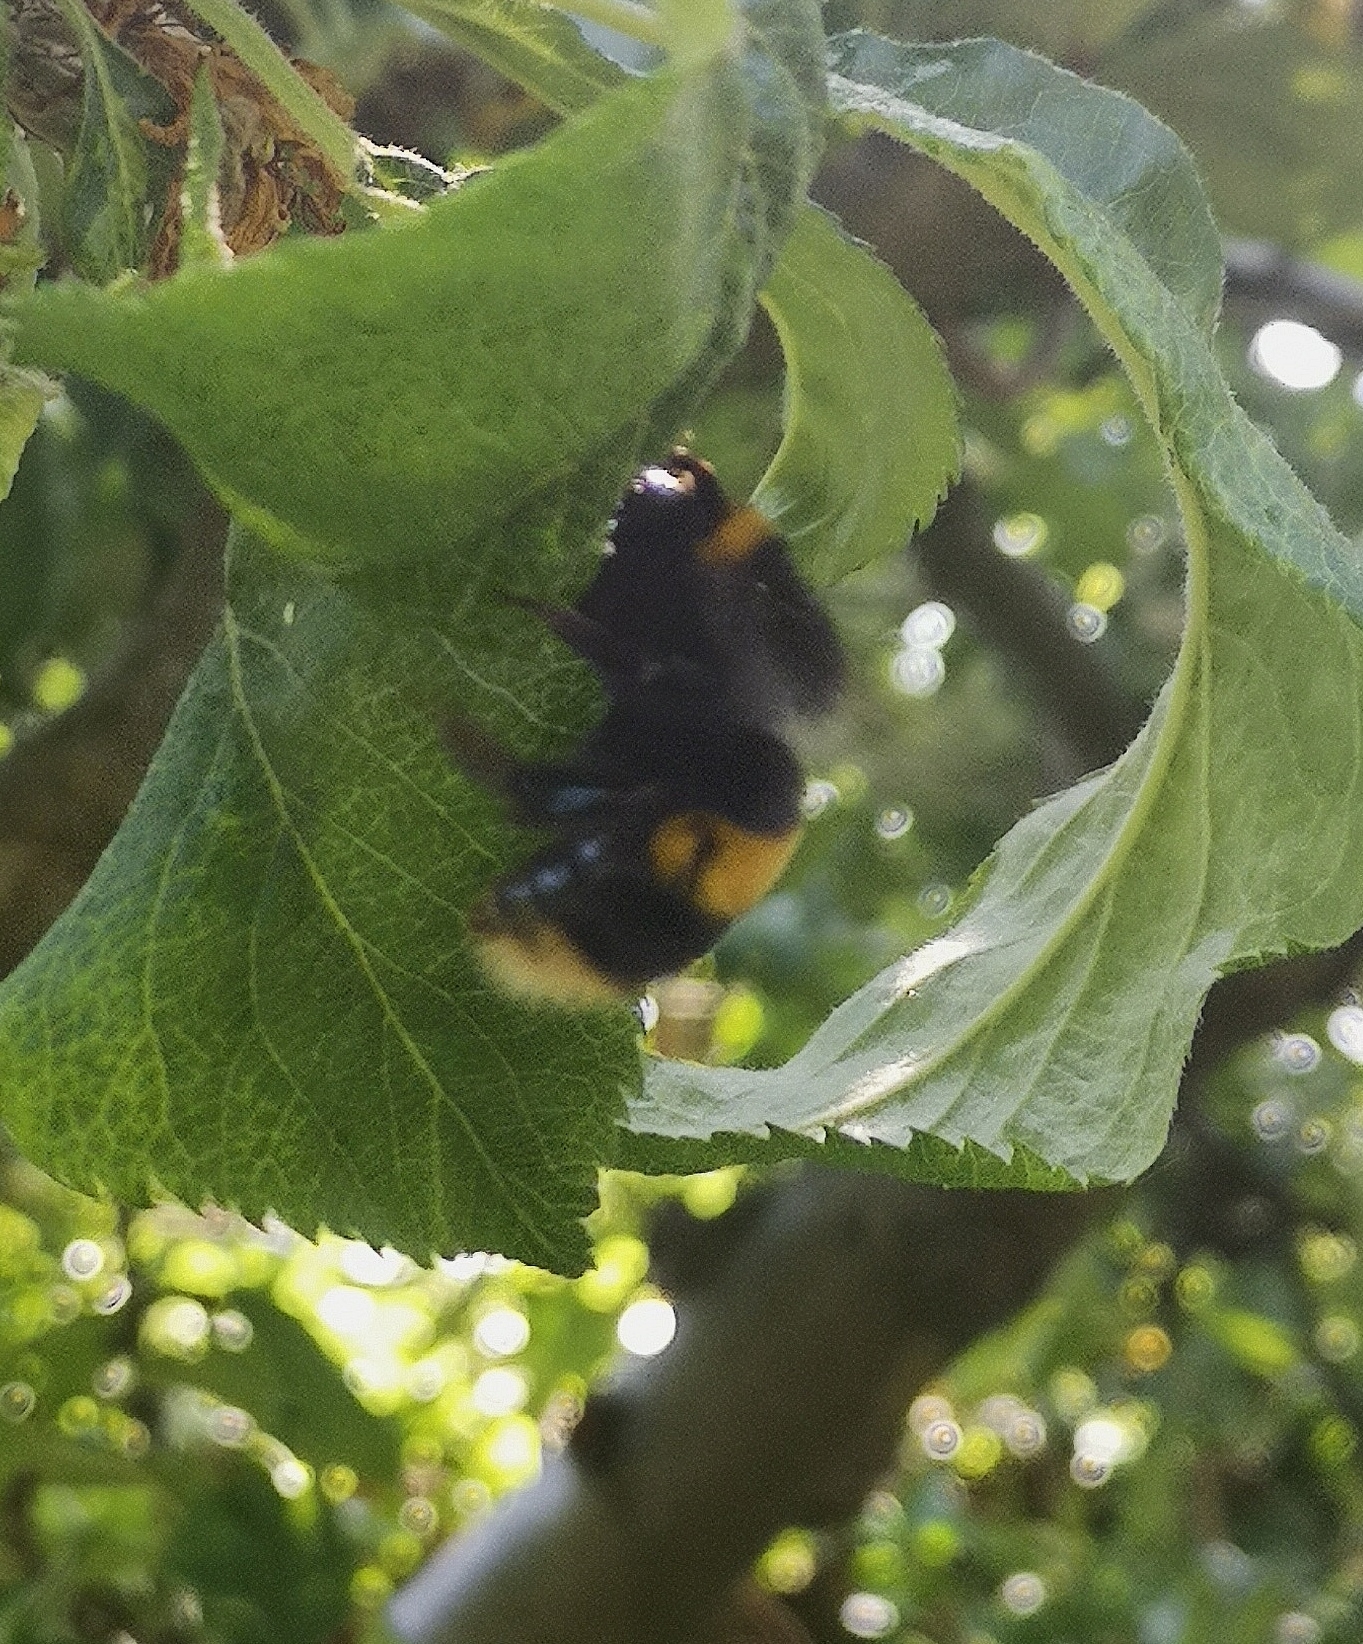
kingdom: Animalia
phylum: Arthropoda
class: Insecta
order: Hymenoptera
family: Apidae
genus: Bombus
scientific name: Bombus terrestris
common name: Buff-tailed bumblebee
